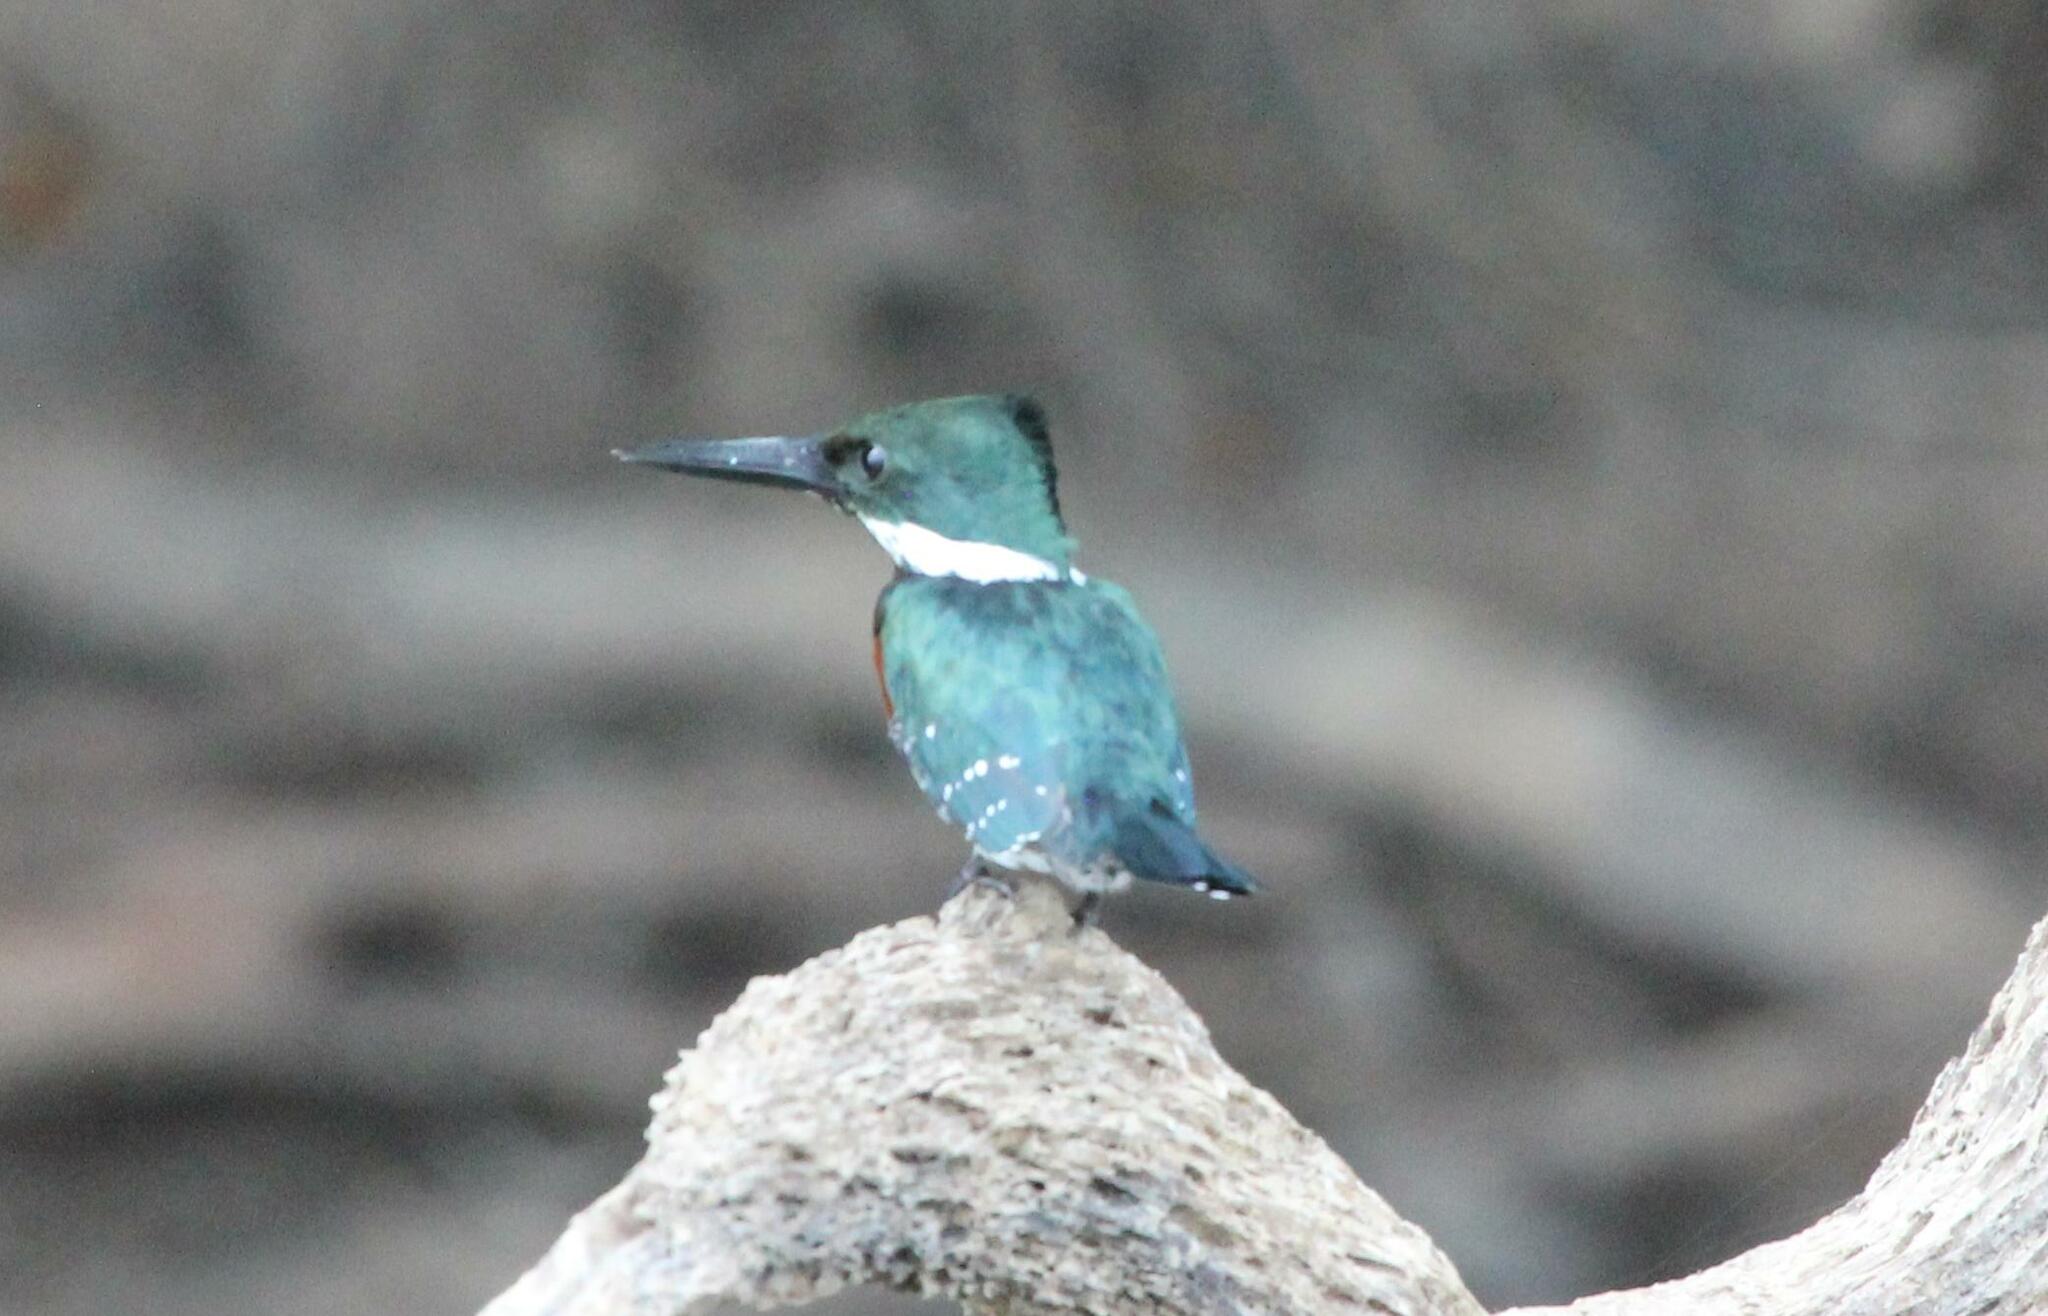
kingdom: Animalia
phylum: Chordata
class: Aves
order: Coraciiformes
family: Alcedinidae
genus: Chloroceryle
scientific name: Chloroceryle americana
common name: Green kingfisher
